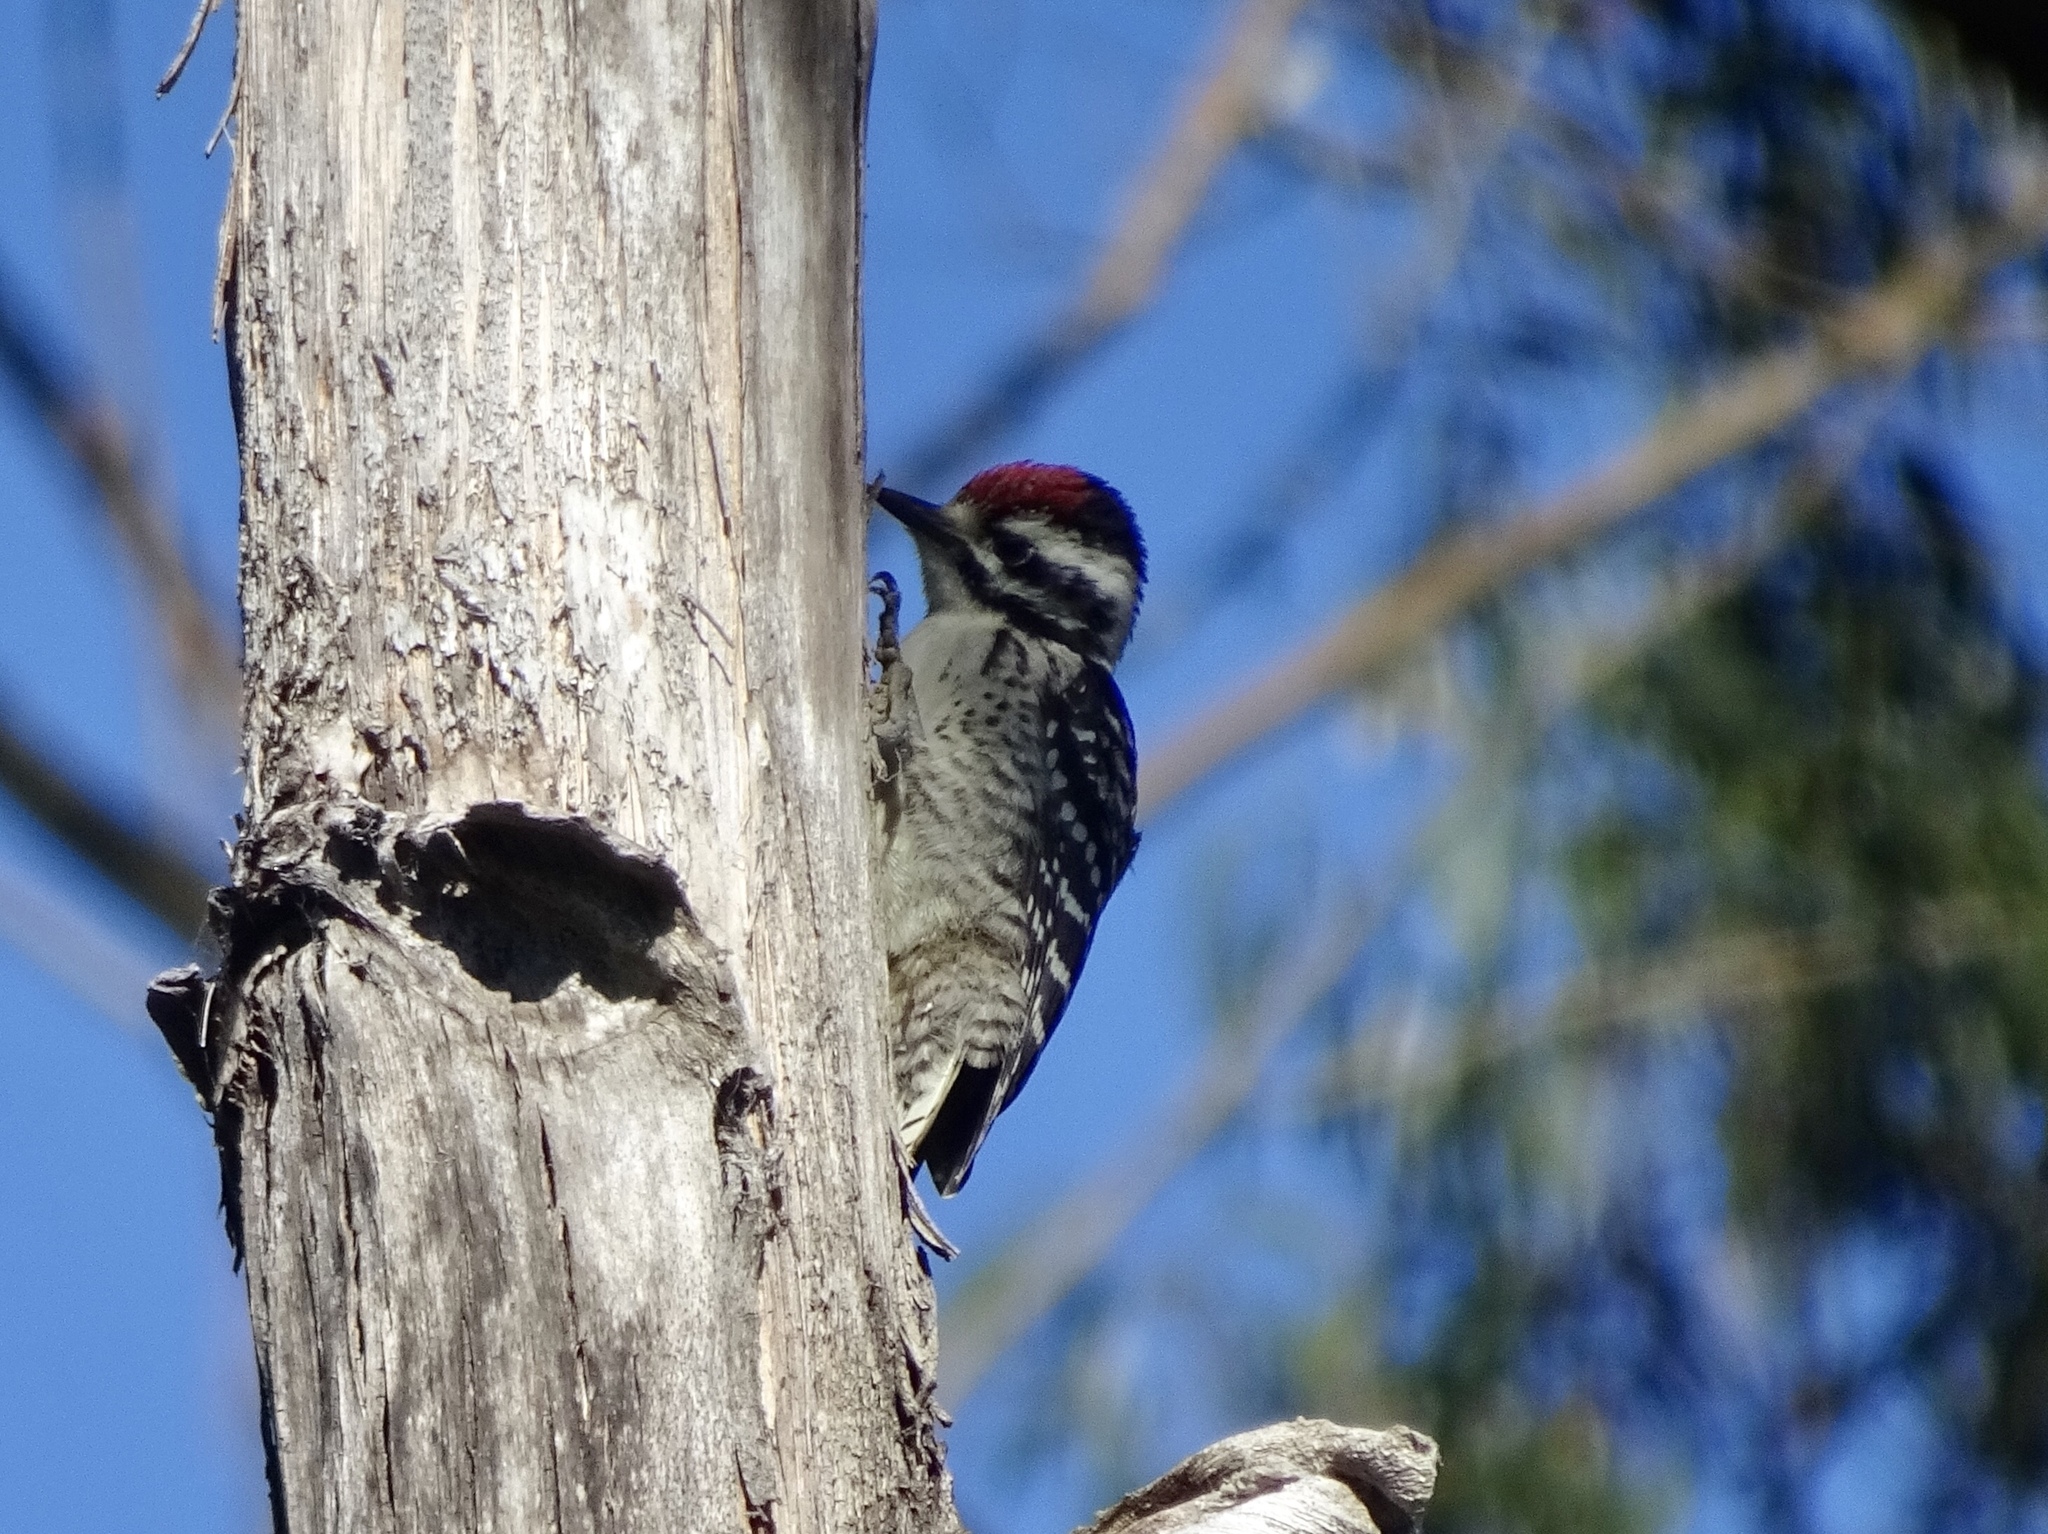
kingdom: Animalia
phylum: Chordata
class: Aves
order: Piciformes
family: Picidae
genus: Dryobates
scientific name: Dryobates nuttallii
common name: Nuttall's woodpecker
